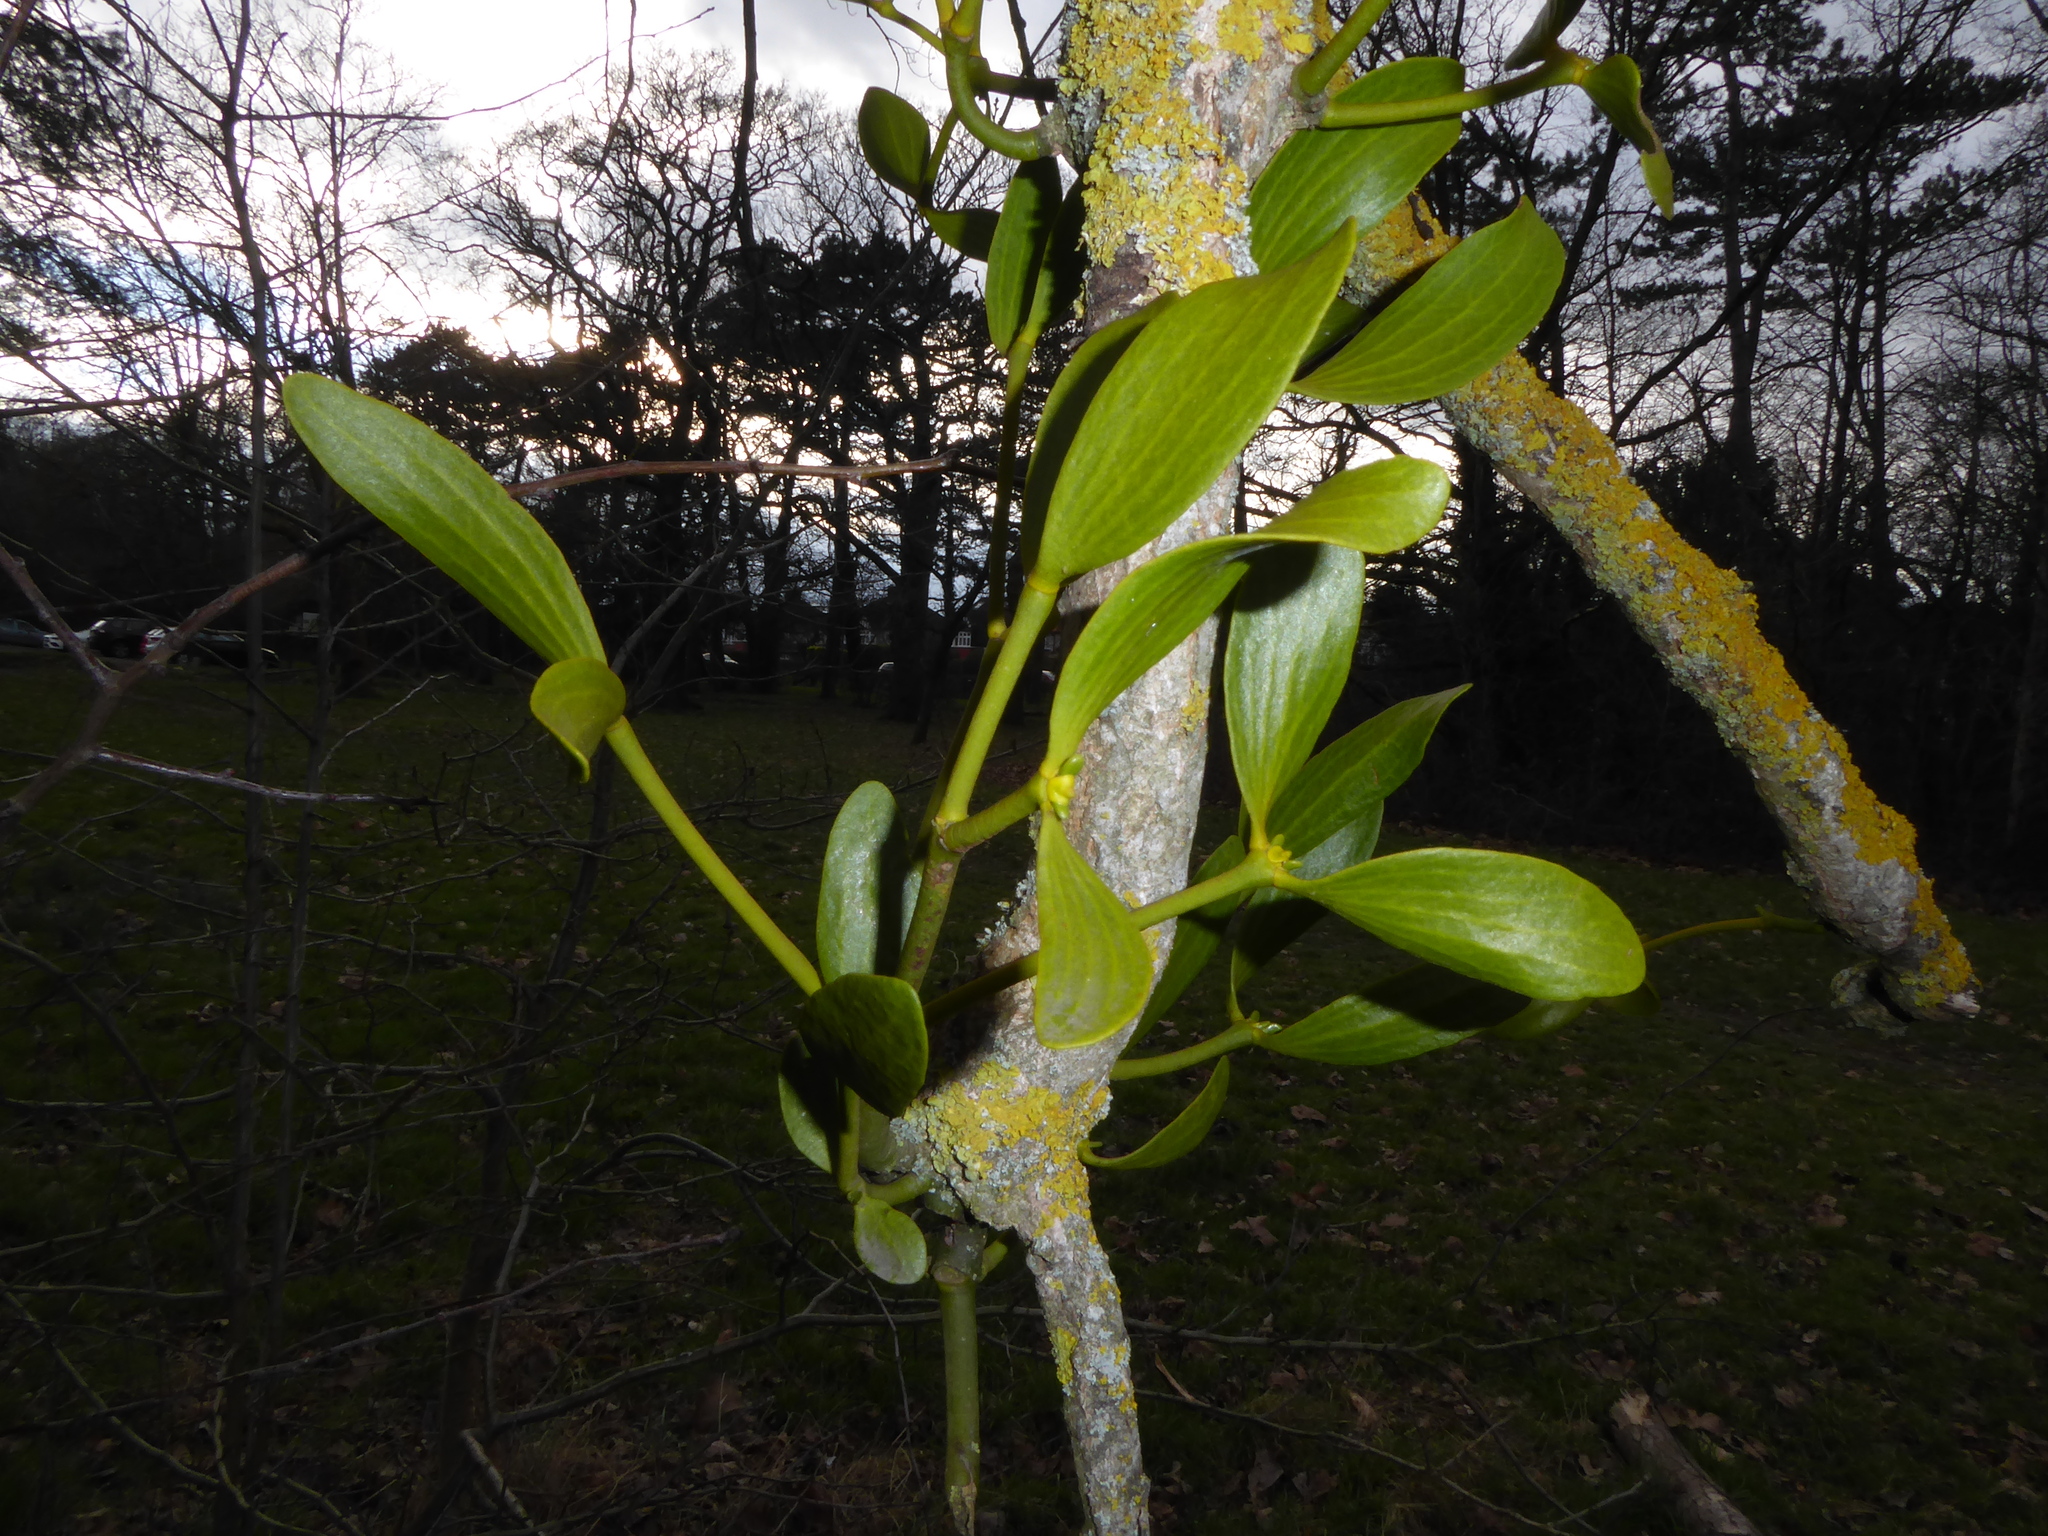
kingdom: Plantae
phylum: Tracheophyta
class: Magnoliopsida
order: Santalales
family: Viscaceae
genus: Viscum
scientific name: Viscum album
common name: Mistletoe
